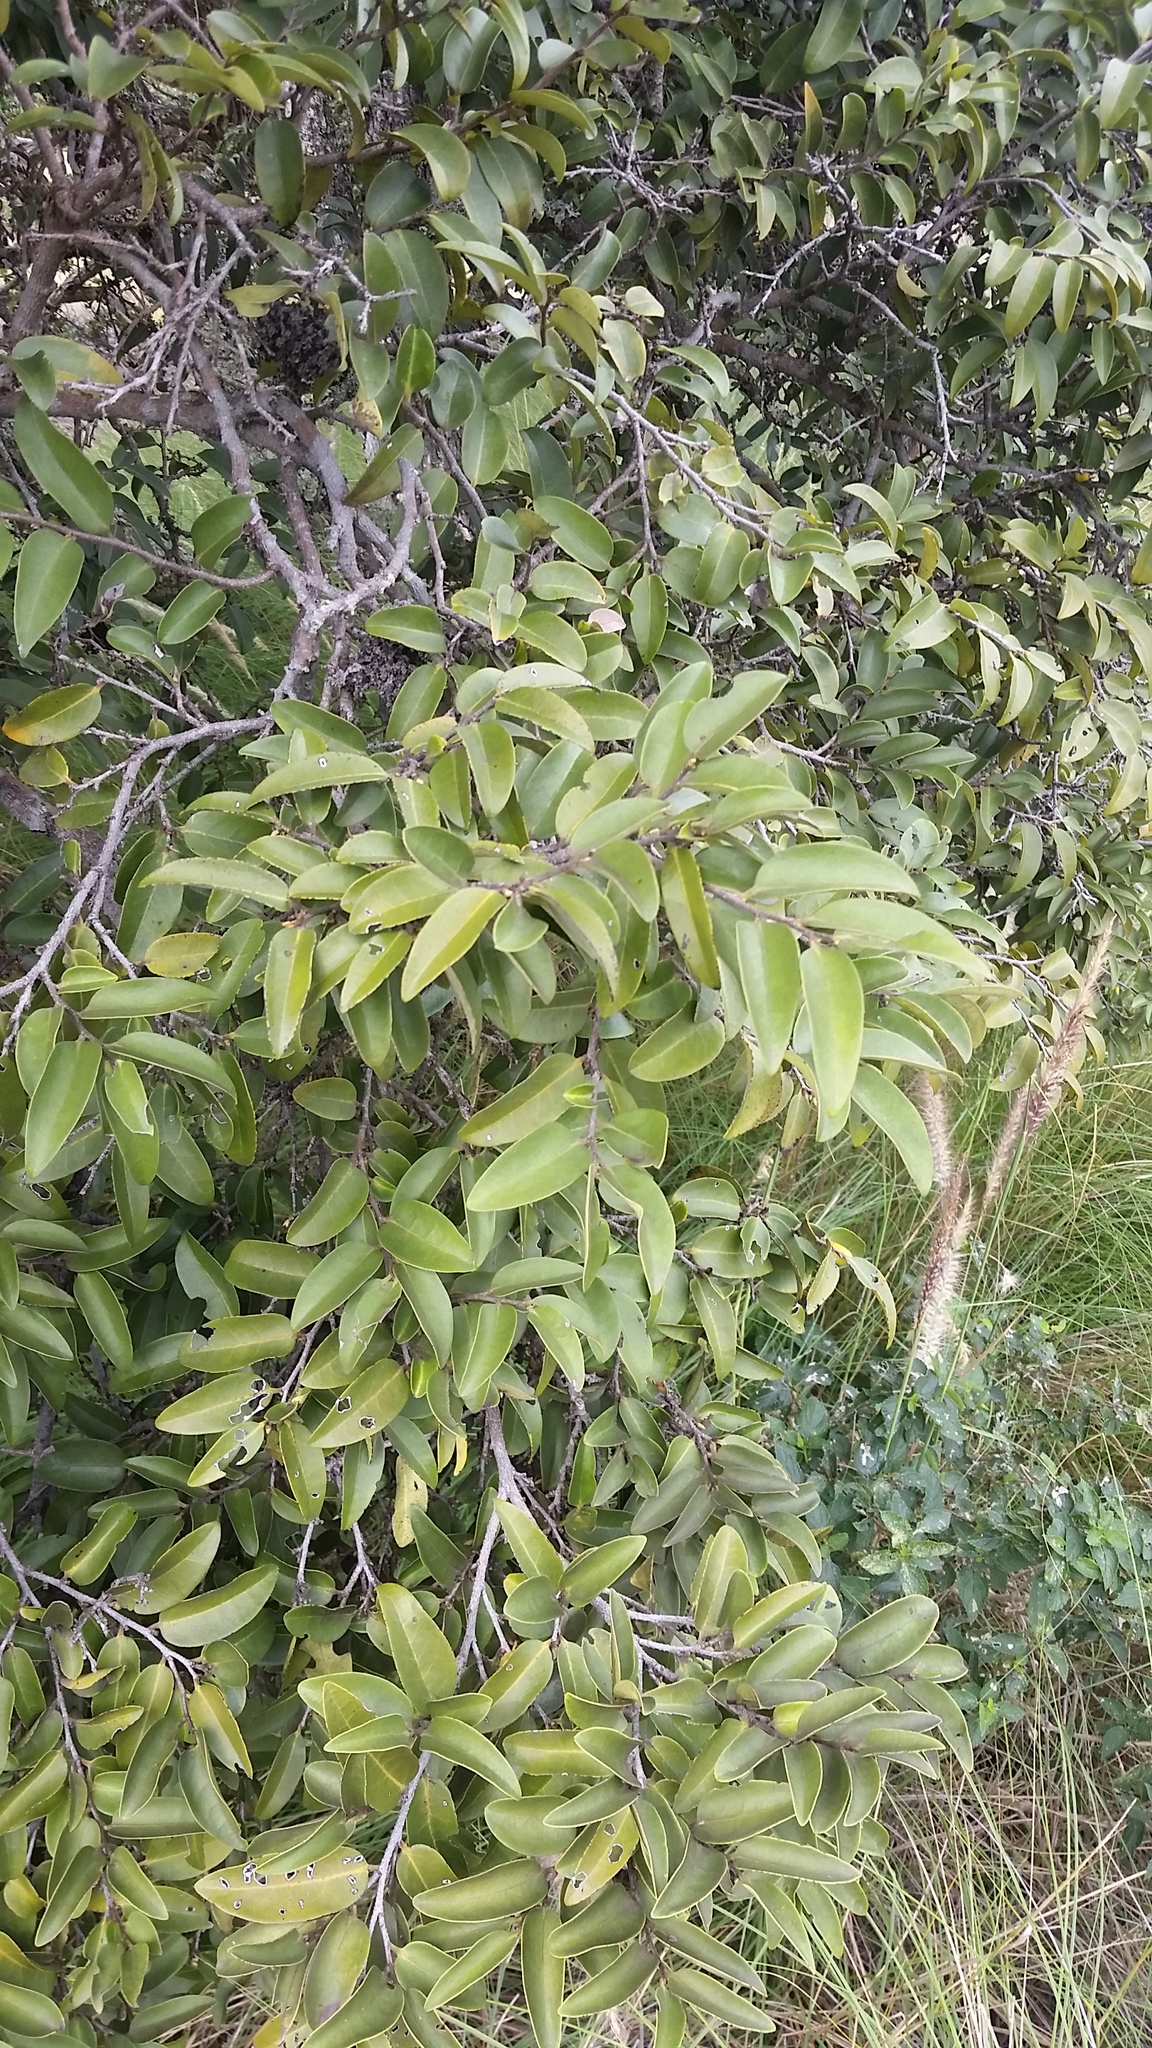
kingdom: Plantae
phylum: Tracheophyta
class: Magnoliopsida
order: Ericales
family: Ebenaceae
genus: Diospyros
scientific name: Diospyros sandwicensis
